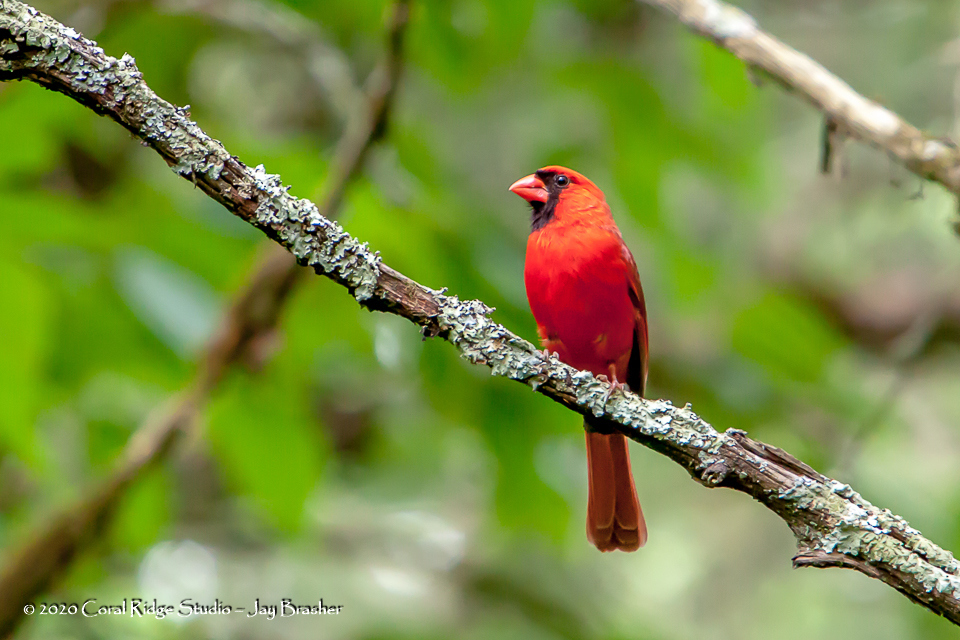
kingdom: Animalia
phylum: Chordata
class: Aves
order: Passeriformes
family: Cardinalidae
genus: Cardinalis
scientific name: Cardinalis cardinalis
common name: Northern cardinal
